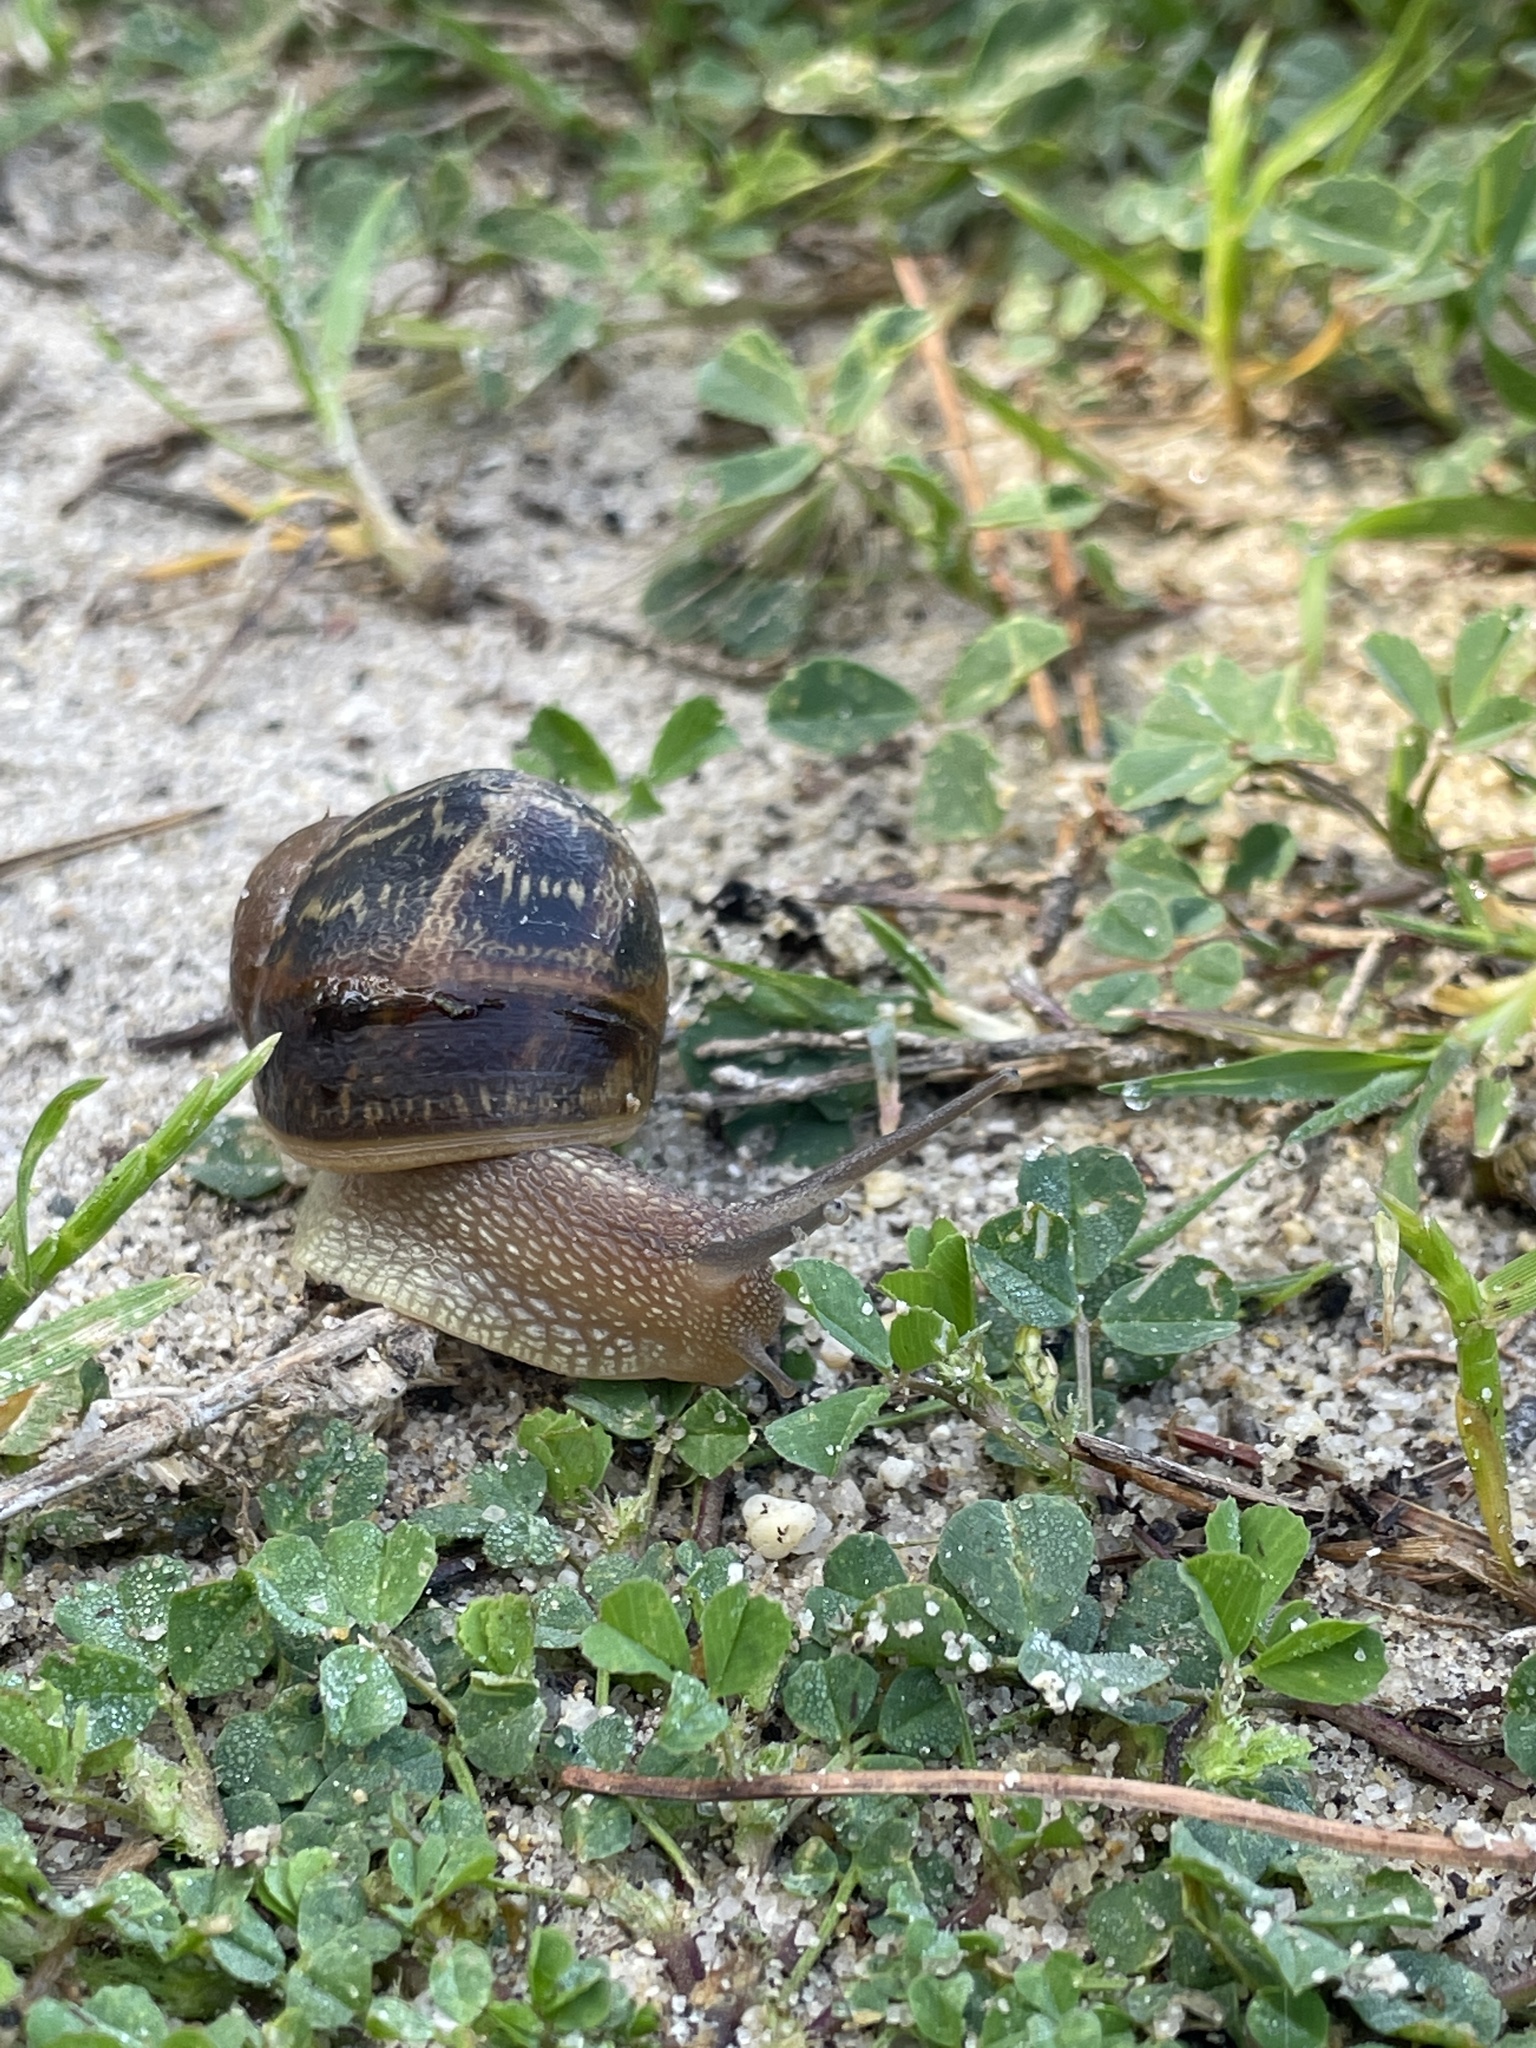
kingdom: Animalia
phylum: Mollusca
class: Gastropoda
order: Stylommatophora
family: Helicidae
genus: Cornu
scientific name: Cornu aspersum
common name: Brown garden snail
